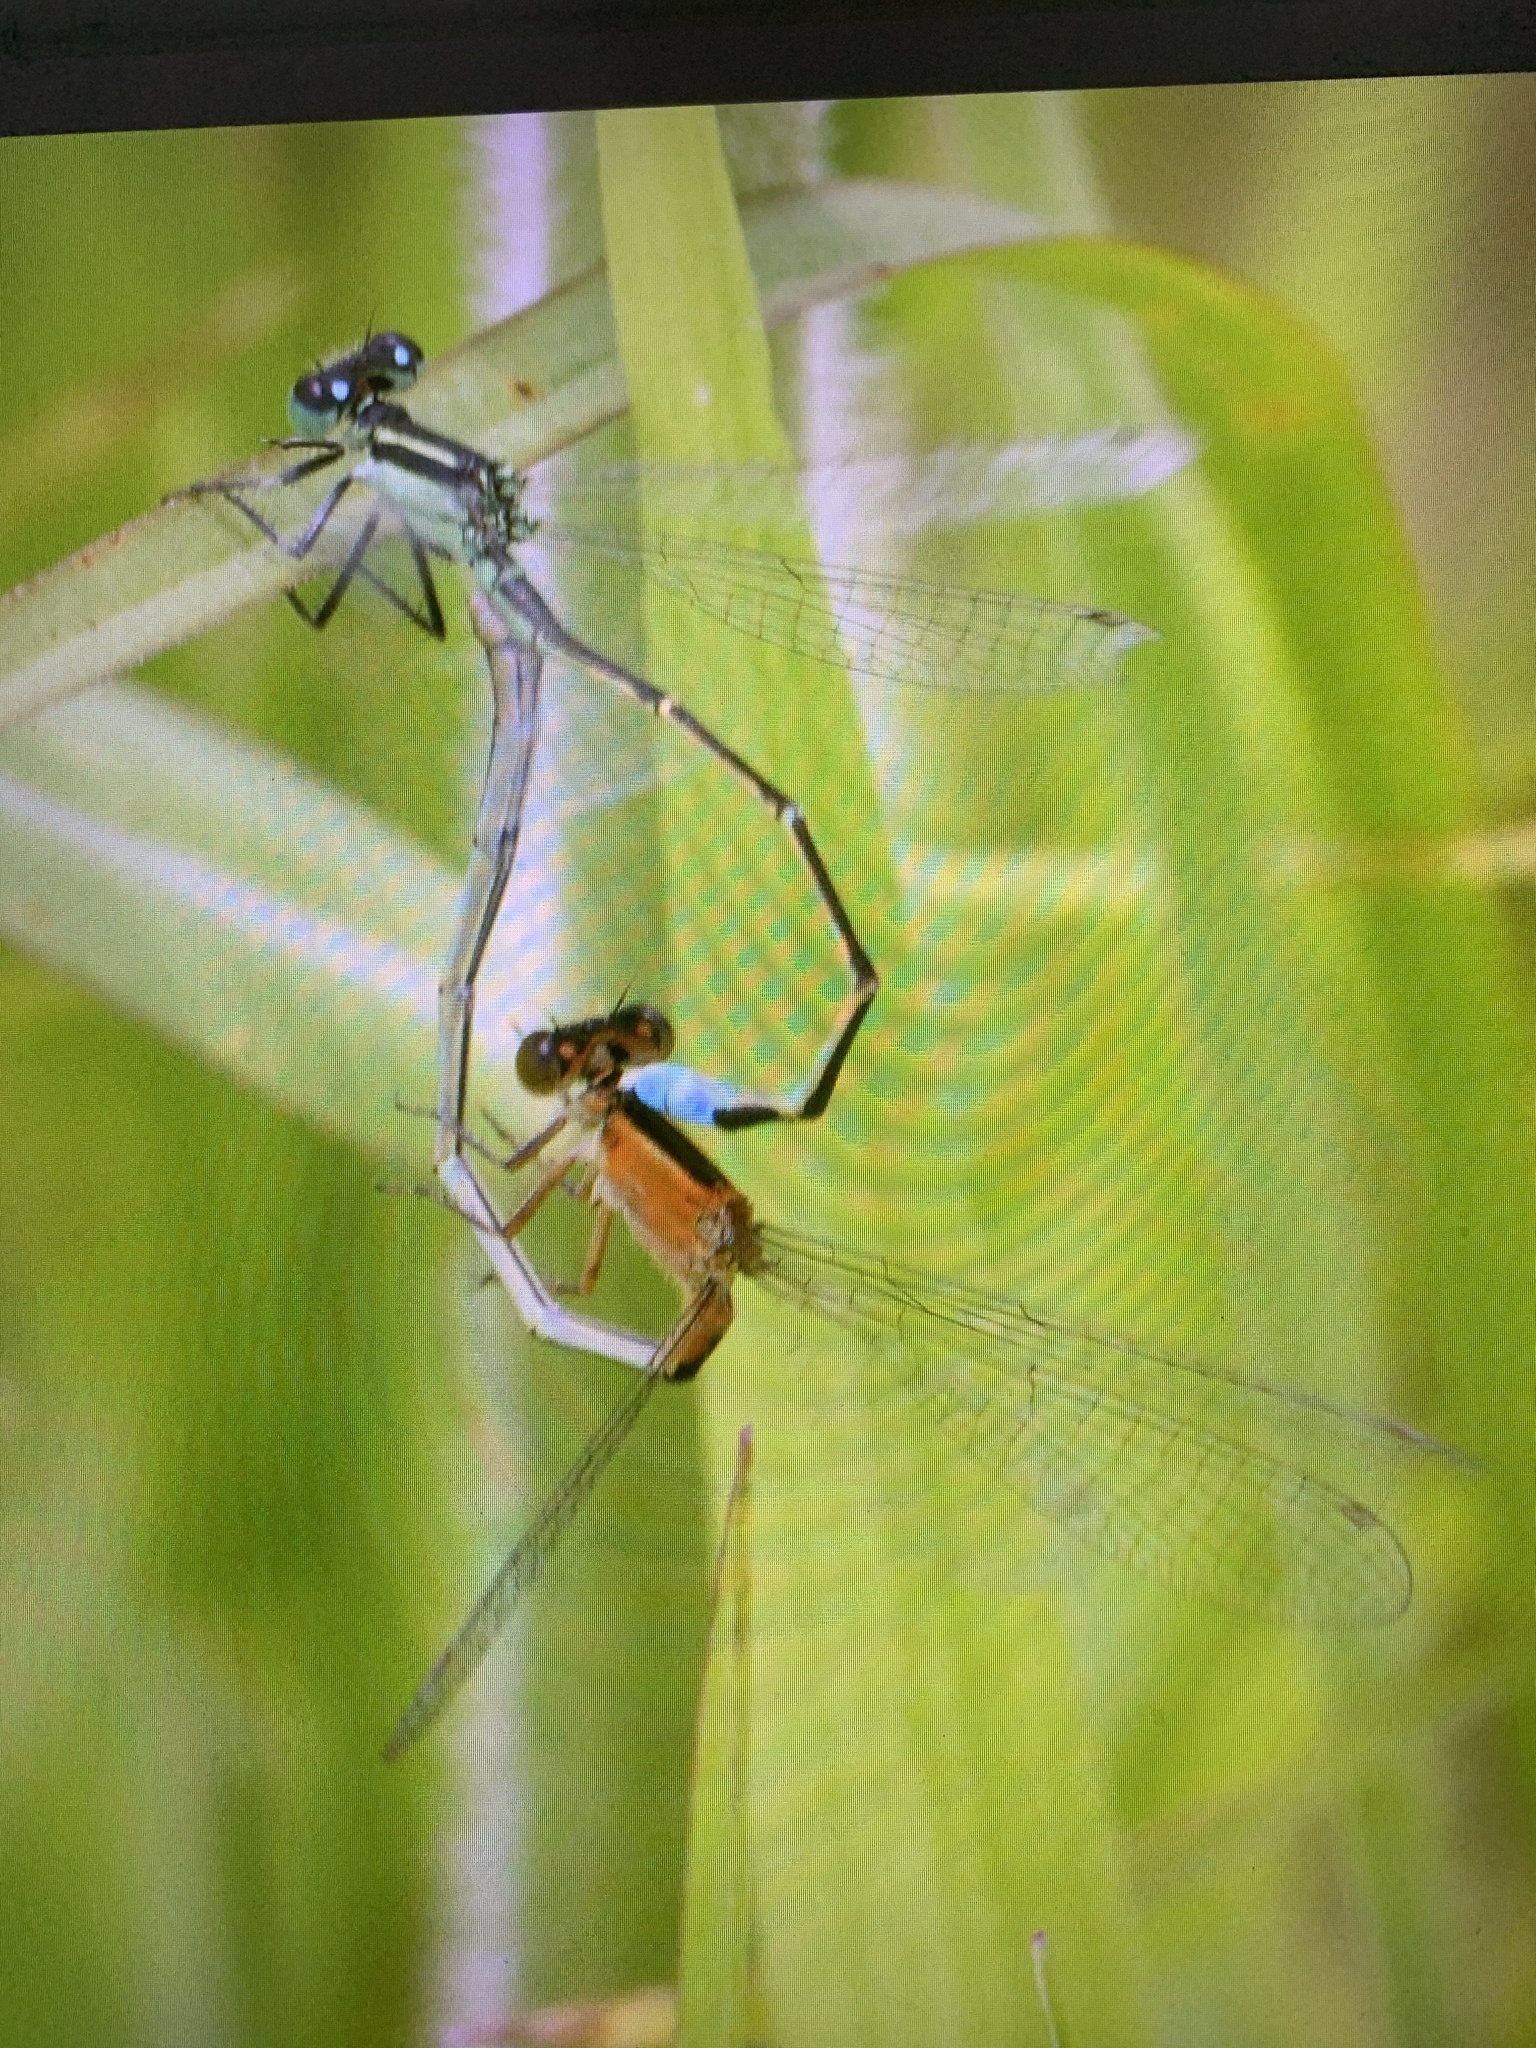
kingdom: Animalia
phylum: Arthropoda
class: Insecta
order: Odonata
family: Coenagrionidae
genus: Ischnura
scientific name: Ischnura ramburii
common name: Rambur's forktail
